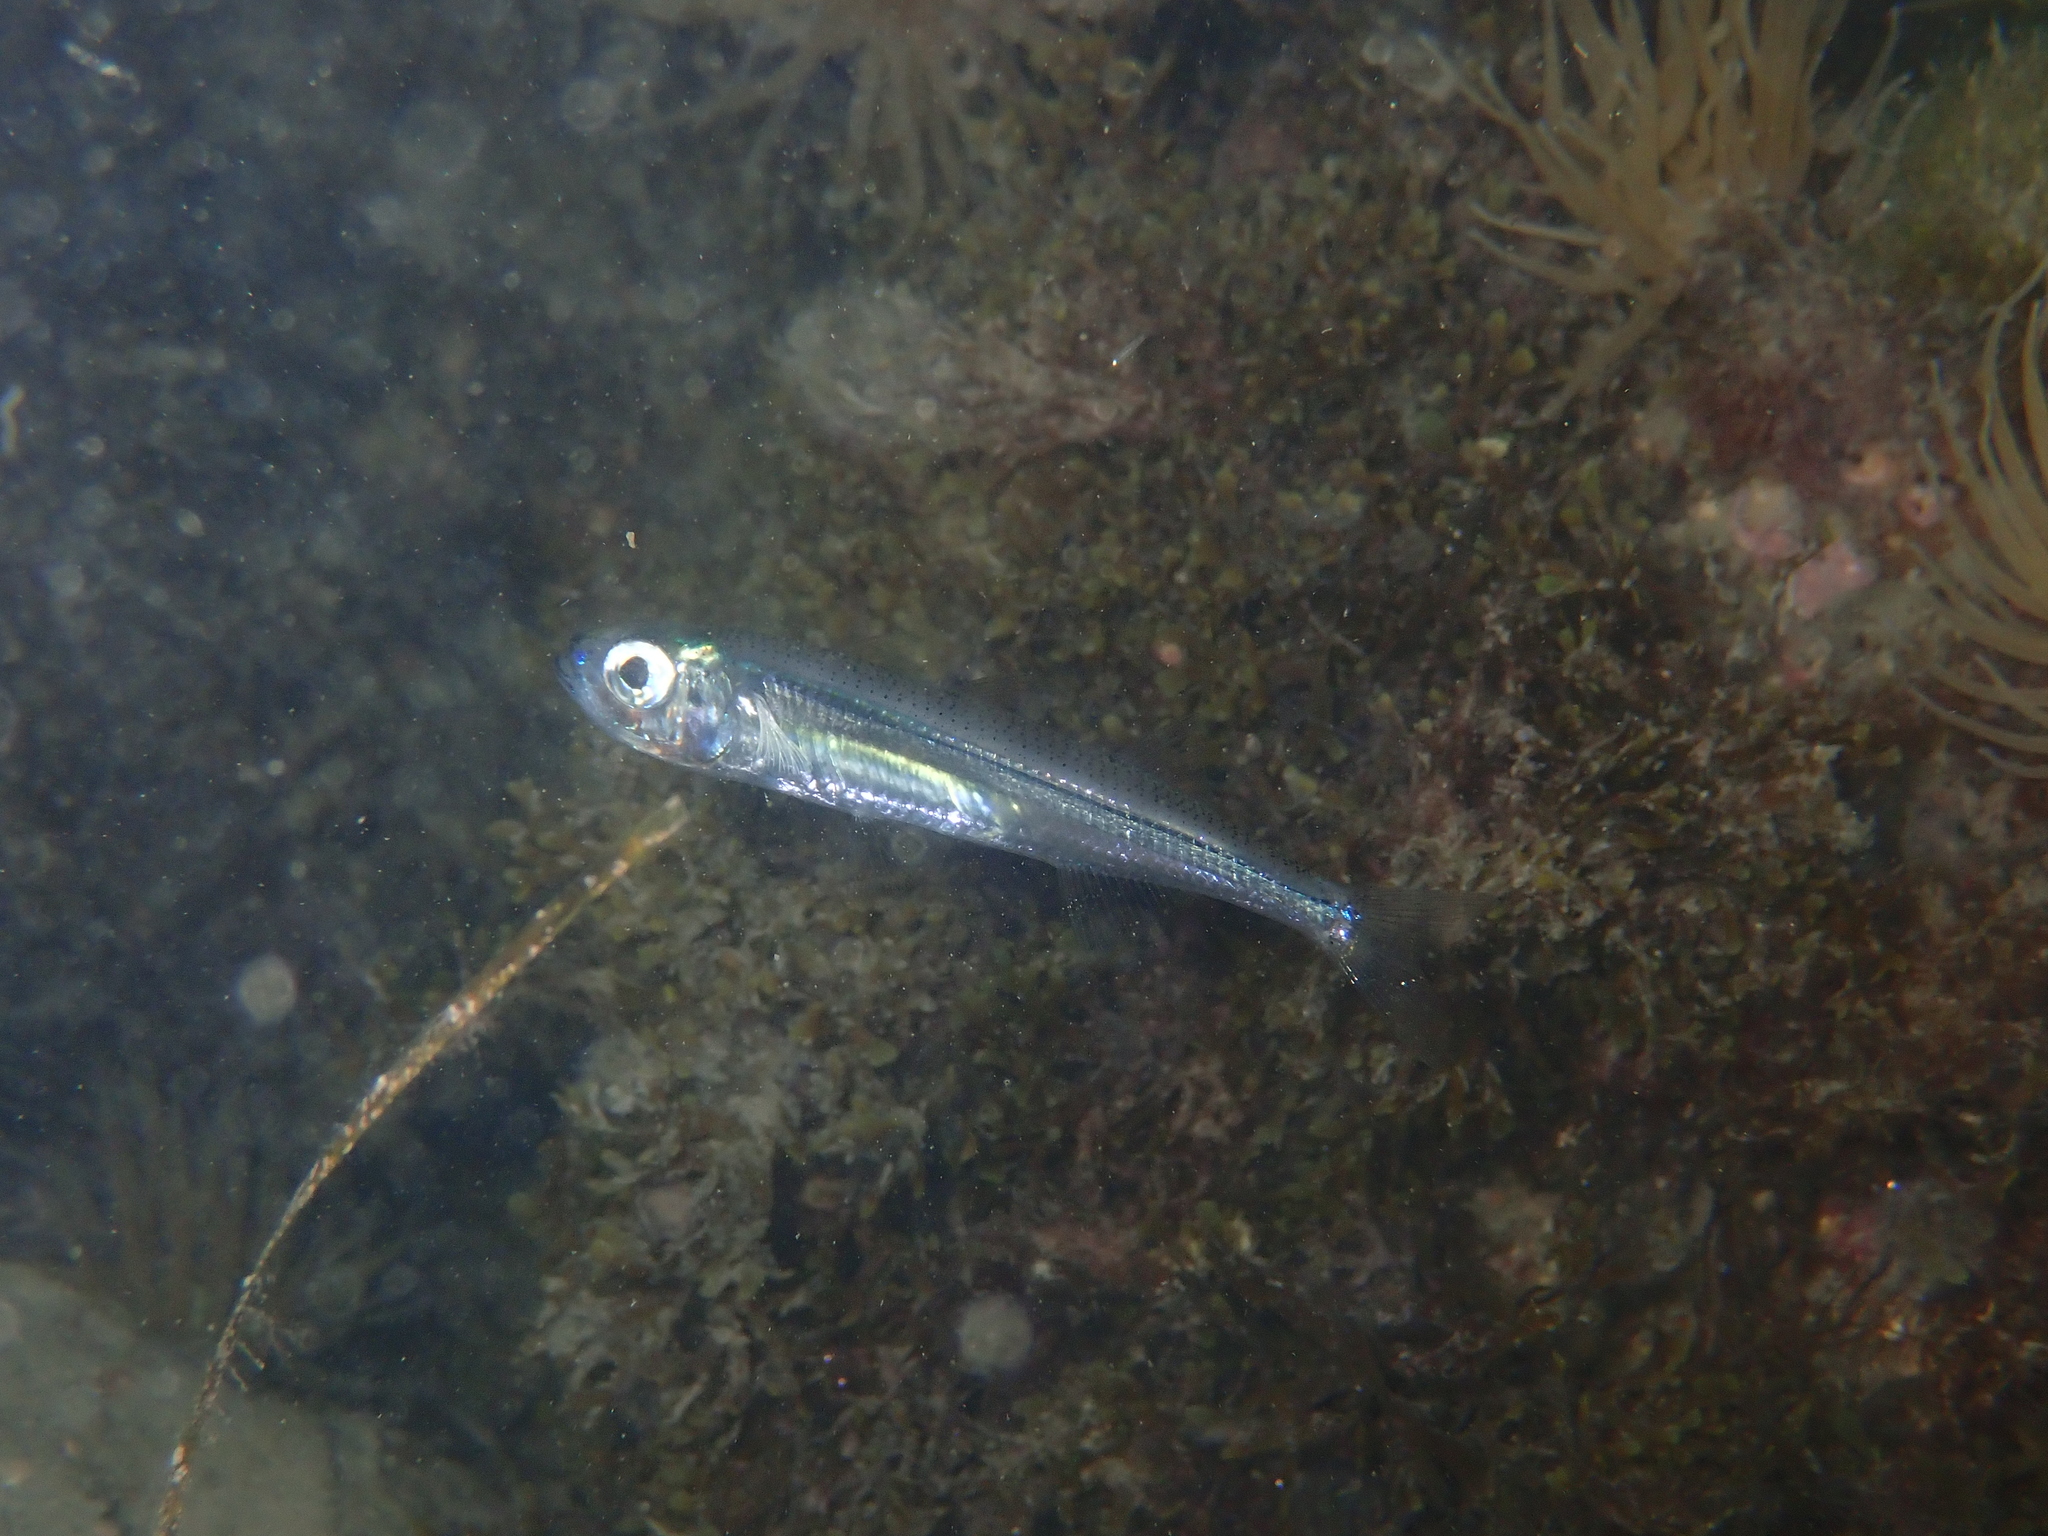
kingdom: Animalia
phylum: Chordata
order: Atheriniformes
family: Atherinidae
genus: Atherina
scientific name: Atherina boyeri
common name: Big-scale sand smelt
